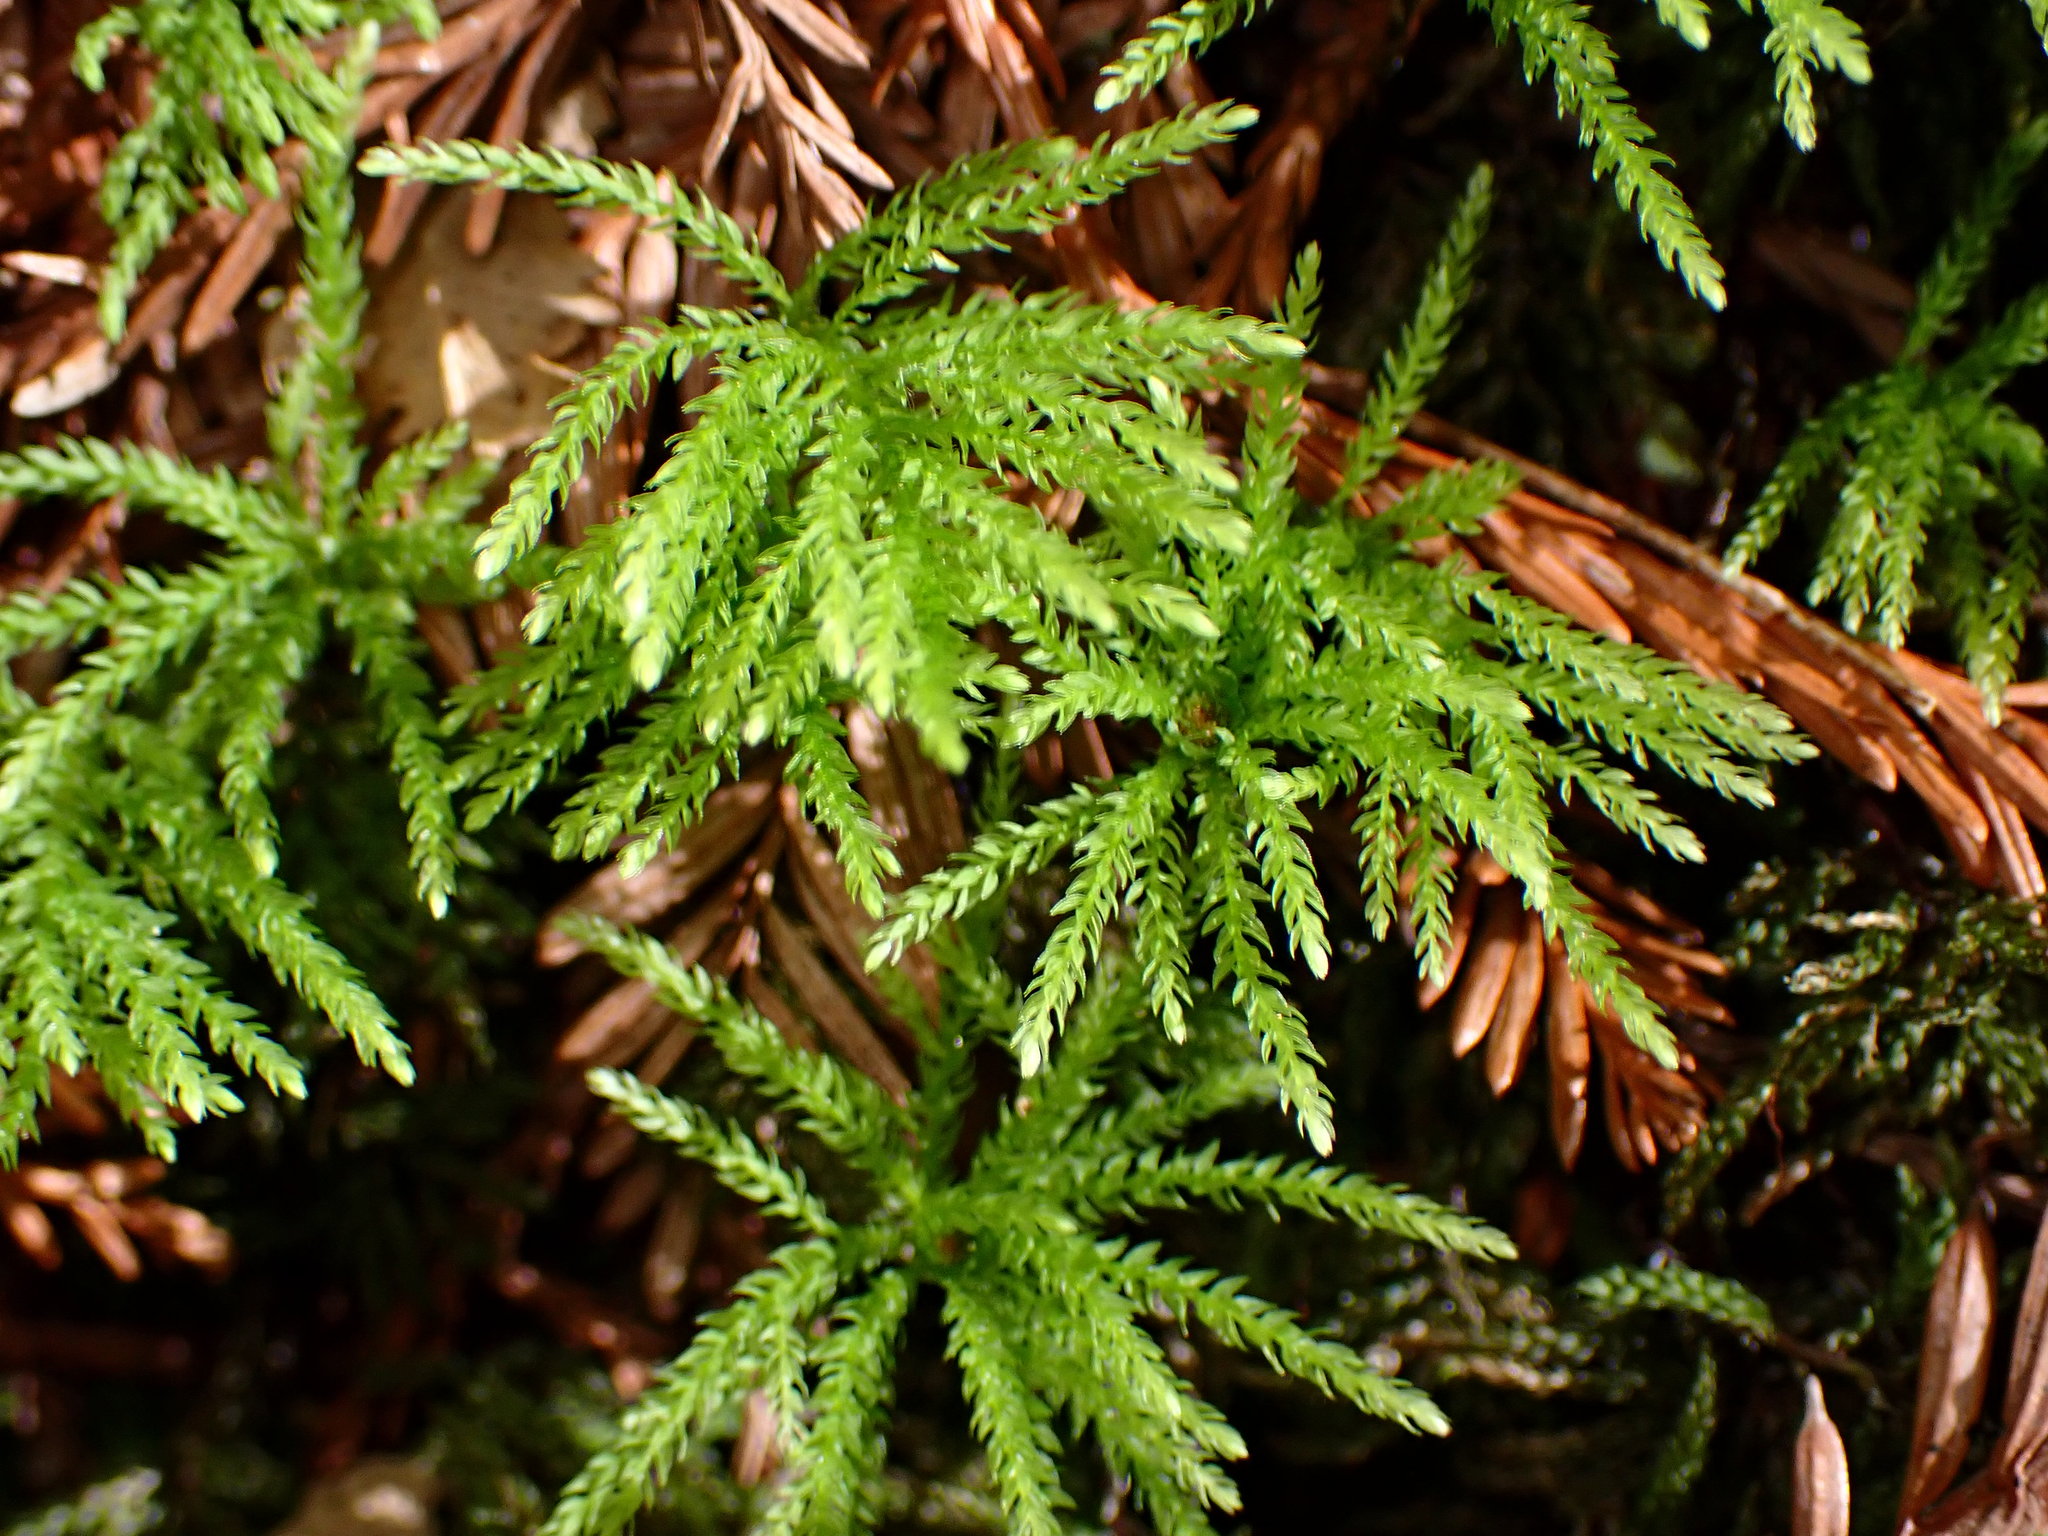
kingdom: Plantae
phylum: Bryophyta
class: Bryopsida
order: Bryales
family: Mniaceae
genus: Leucolepis
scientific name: Leucolepis acanthoneura
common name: Leucolepis umbrella moss
